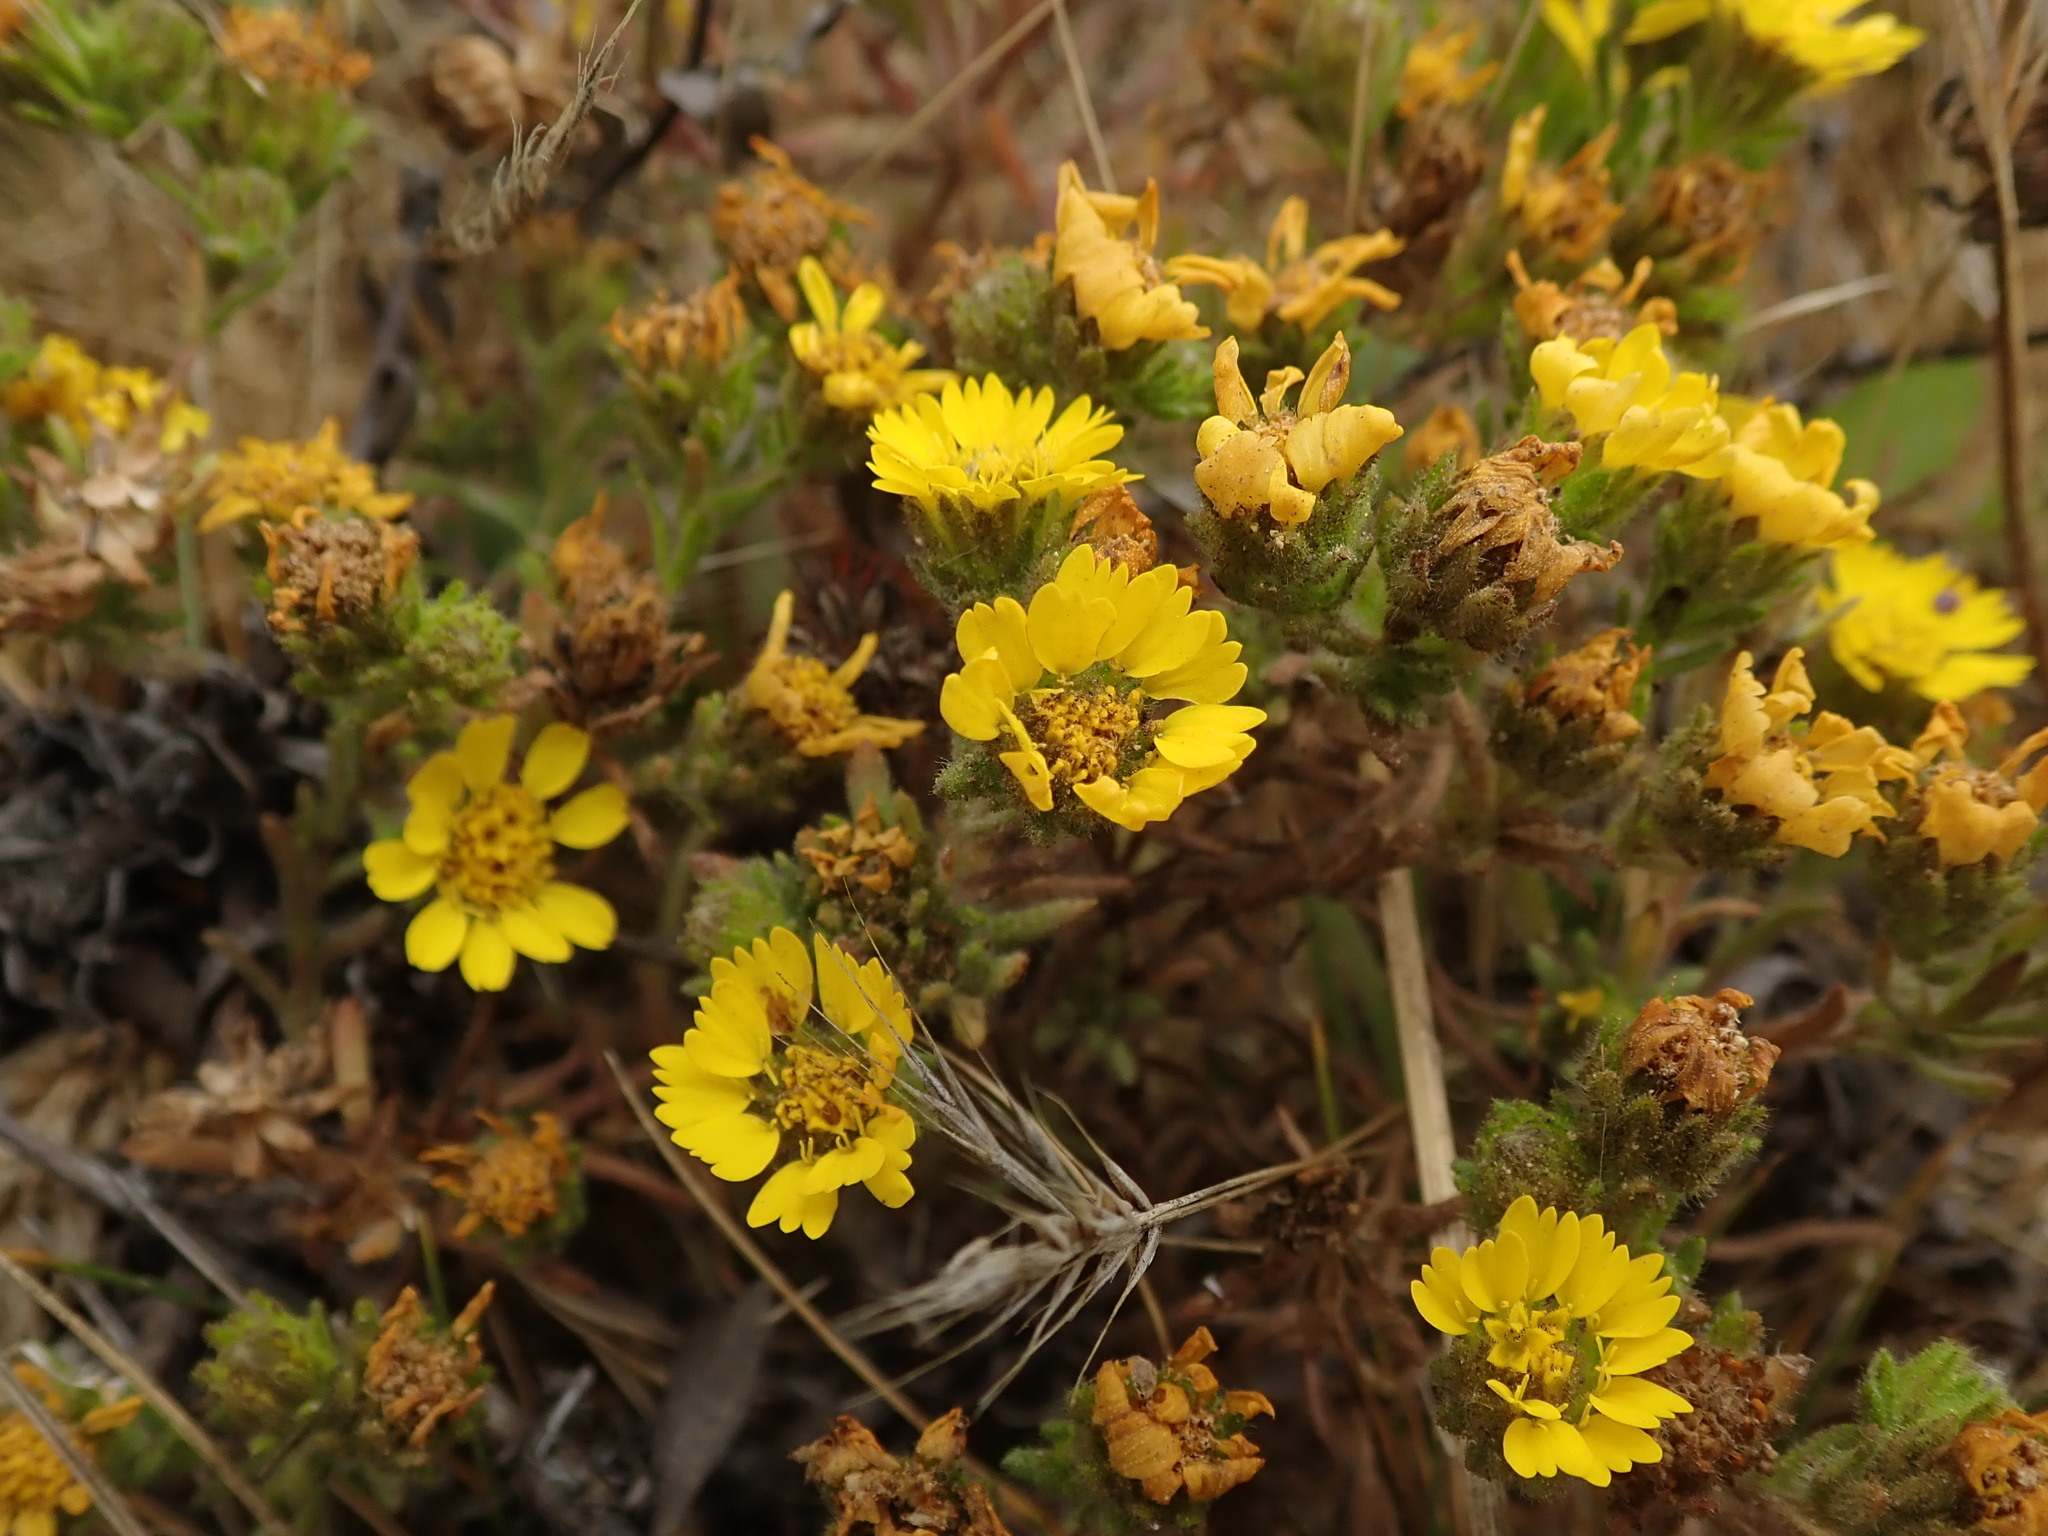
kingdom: Plantae
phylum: Tracheophyta
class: Magnoliopsida
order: Asterales
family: Asteraceae
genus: Deinandra
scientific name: Deinandra corymbosa
